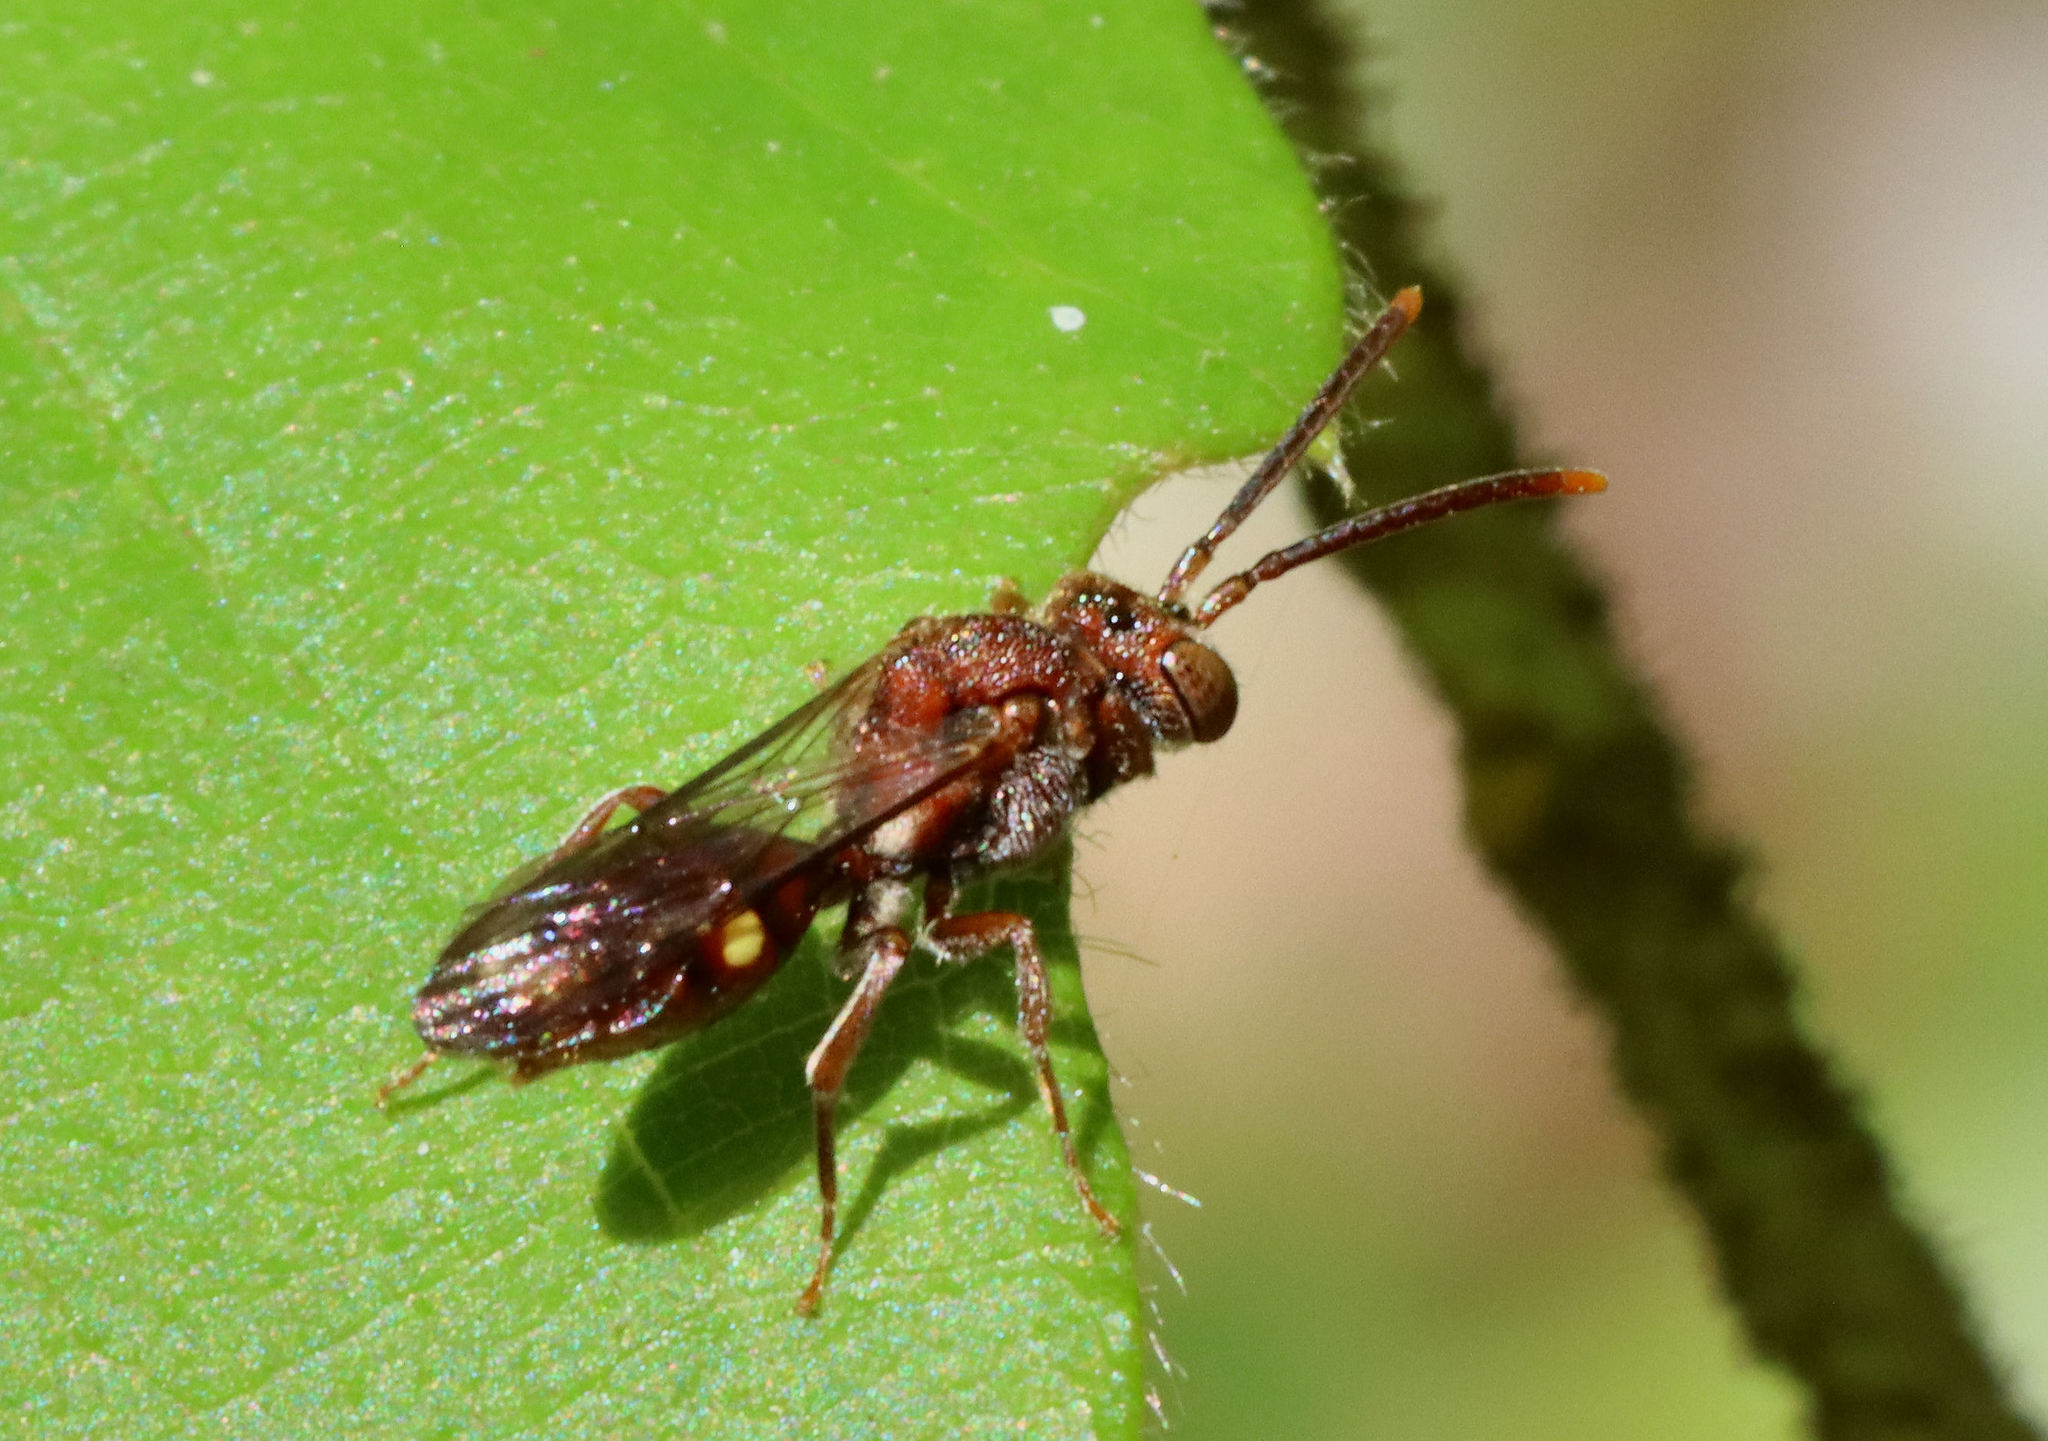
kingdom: Animalia
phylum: Arthropoda
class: Insecta
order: Hymenoptera
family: Apidae
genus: Nomada
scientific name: Nomada
